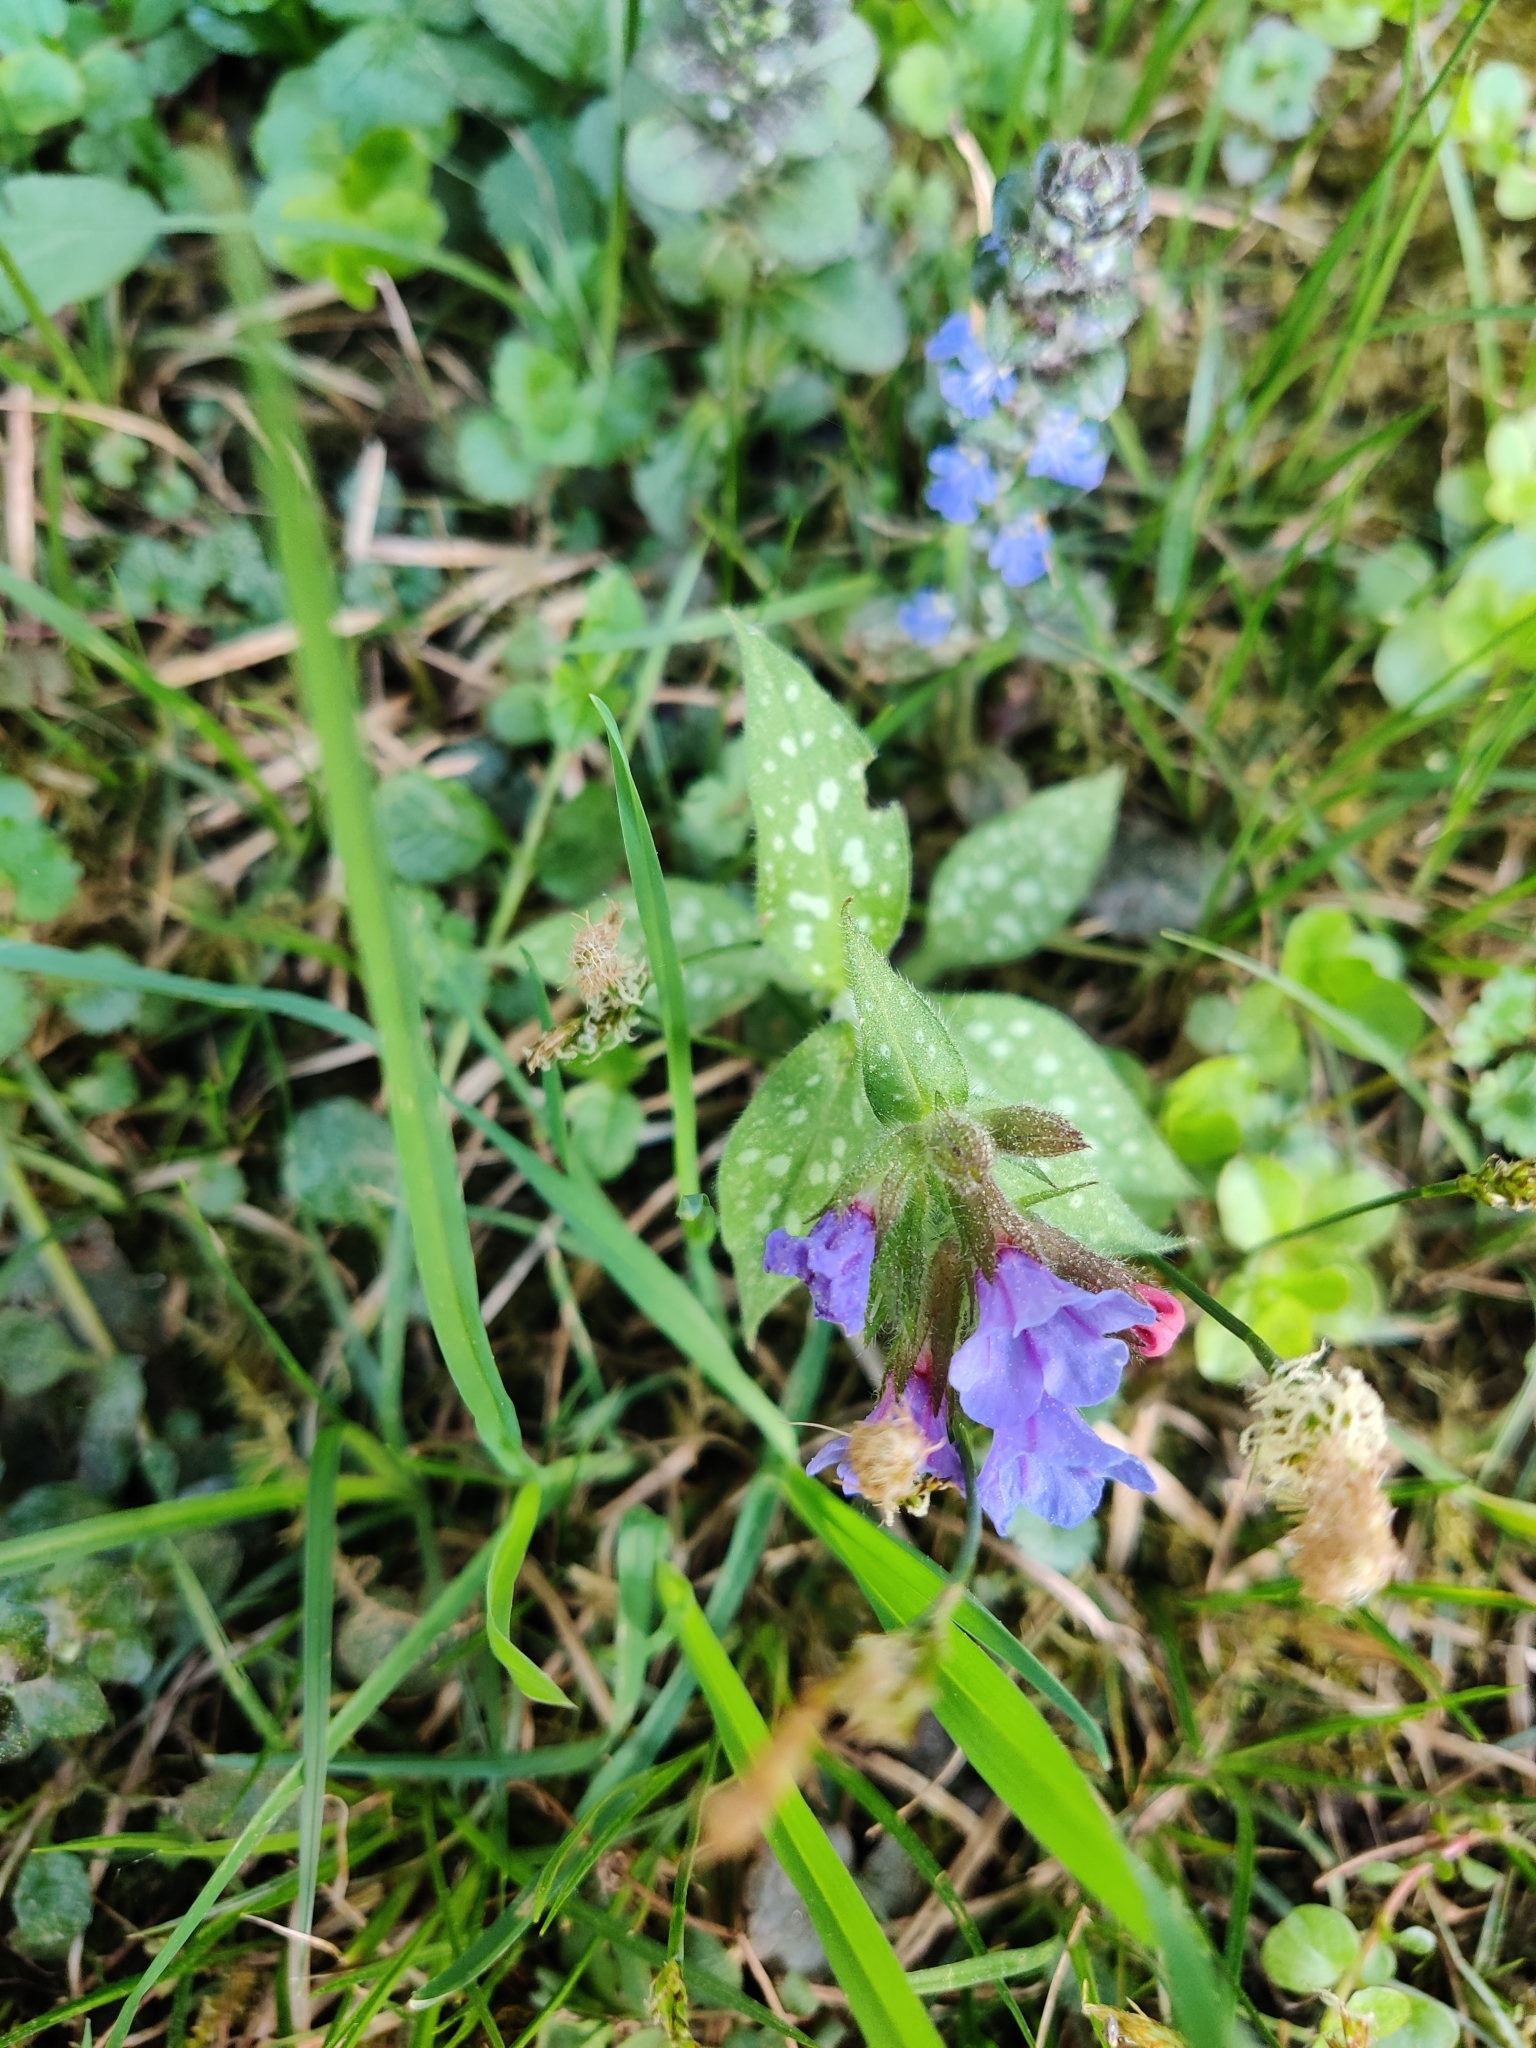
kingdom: Plantae
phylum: Tracheophyta
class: Magnoliopsida
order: Boraginales
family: Boraginaceae
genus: Pulmonaria
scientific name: Pulmonaria officinalis
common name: Lungwort
